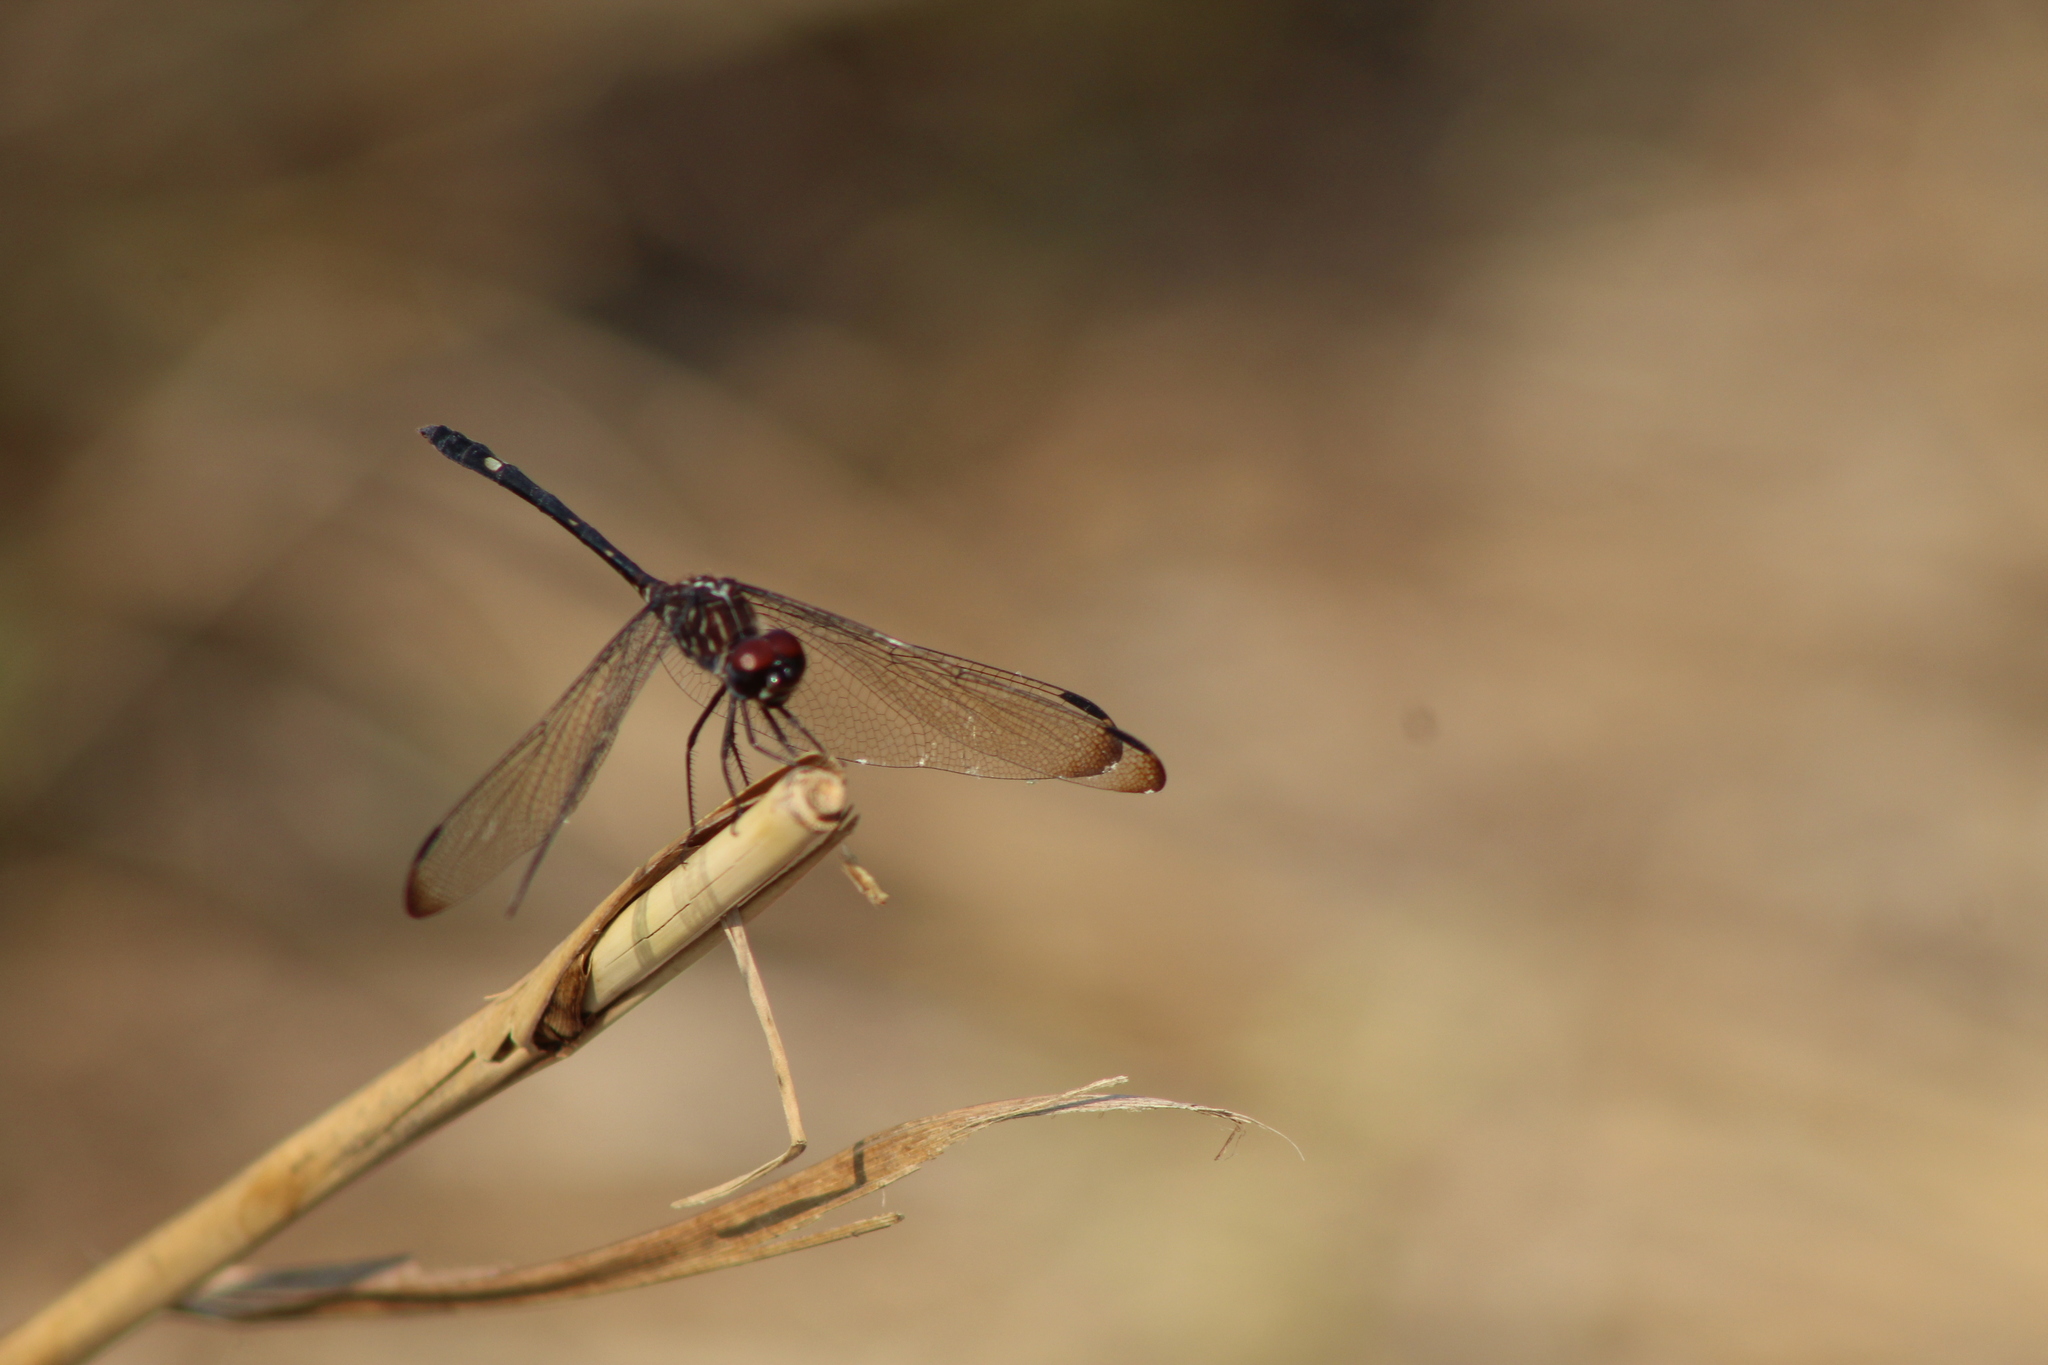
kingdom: Animalia
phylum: Arthropoda
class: Insecta
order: Odonata
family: Libellulidae
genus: Dythemis
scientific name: Dythemis velox
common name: Swift setwing
